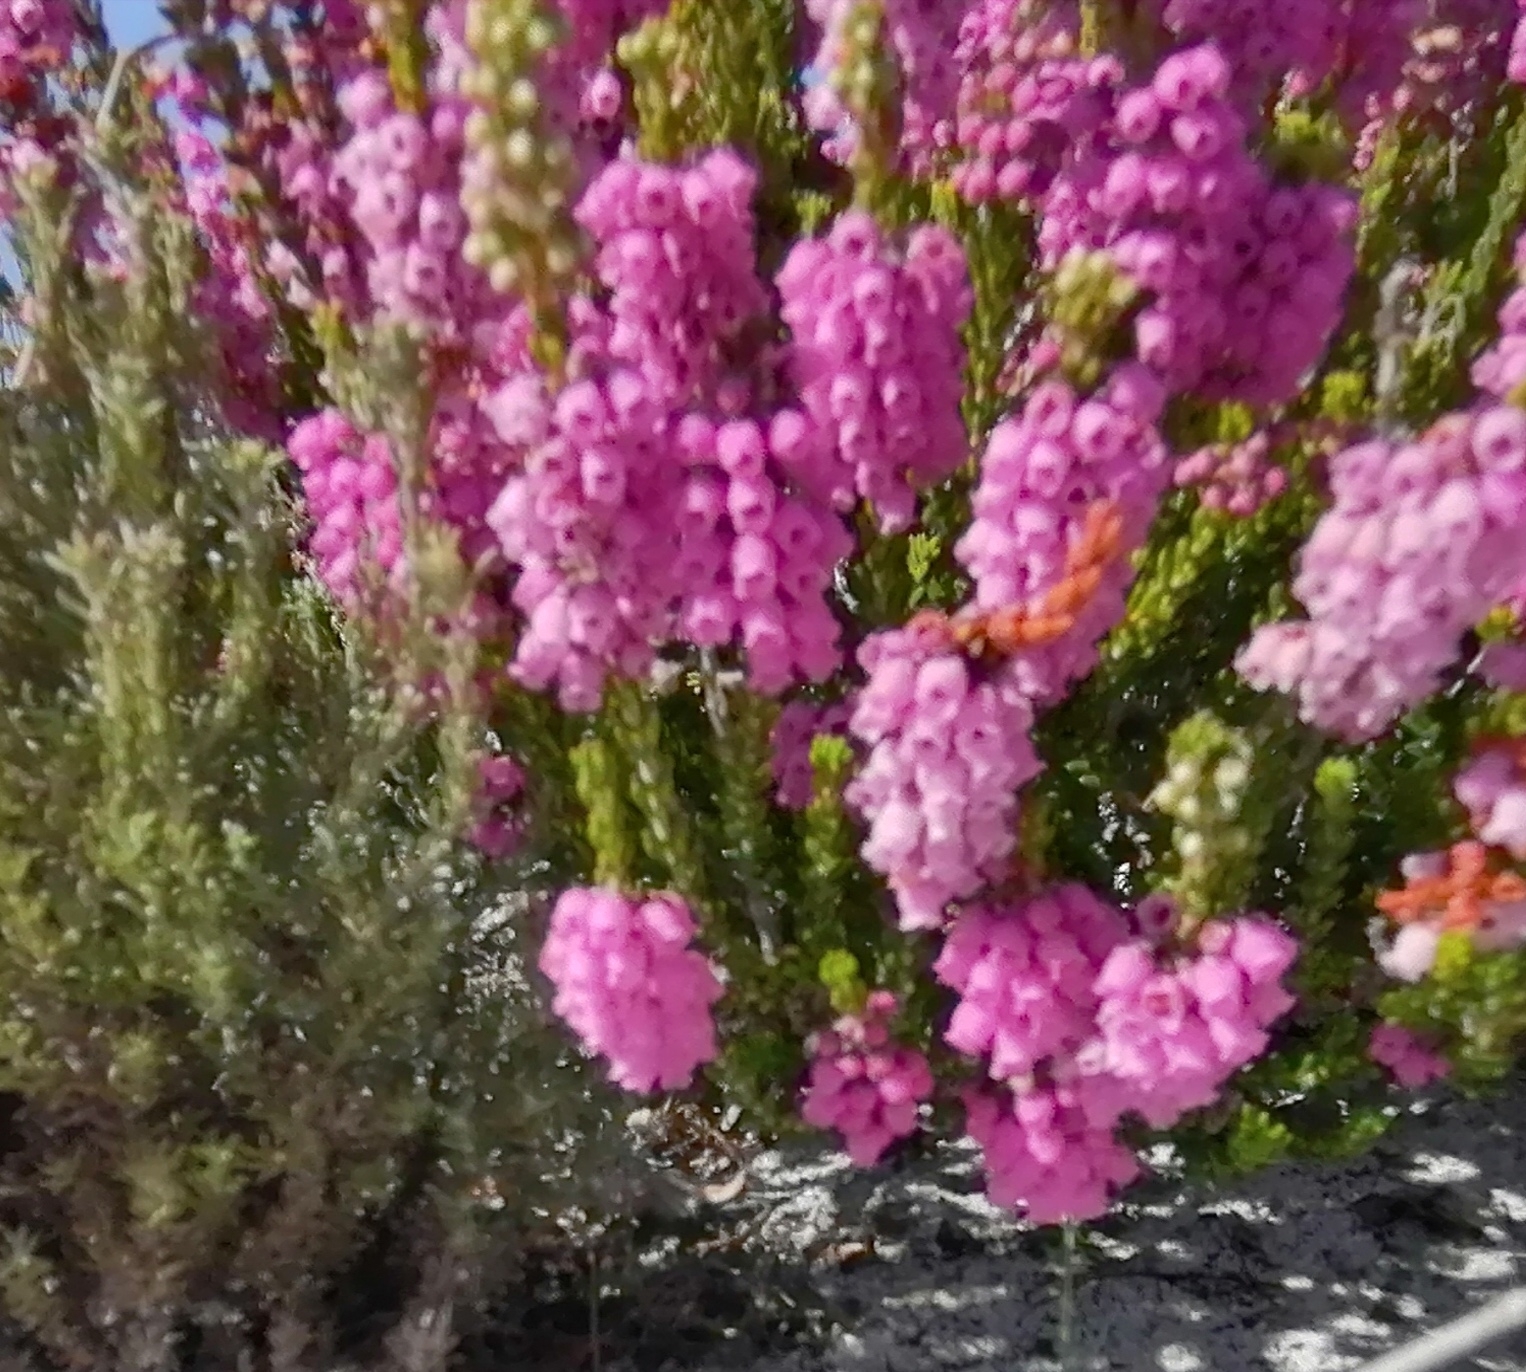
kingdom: Plantae
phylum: Tracheophyta
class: Magnoliopsida
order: Ericales
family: Ericaceae
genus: Erica
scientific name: Erica pulchella
